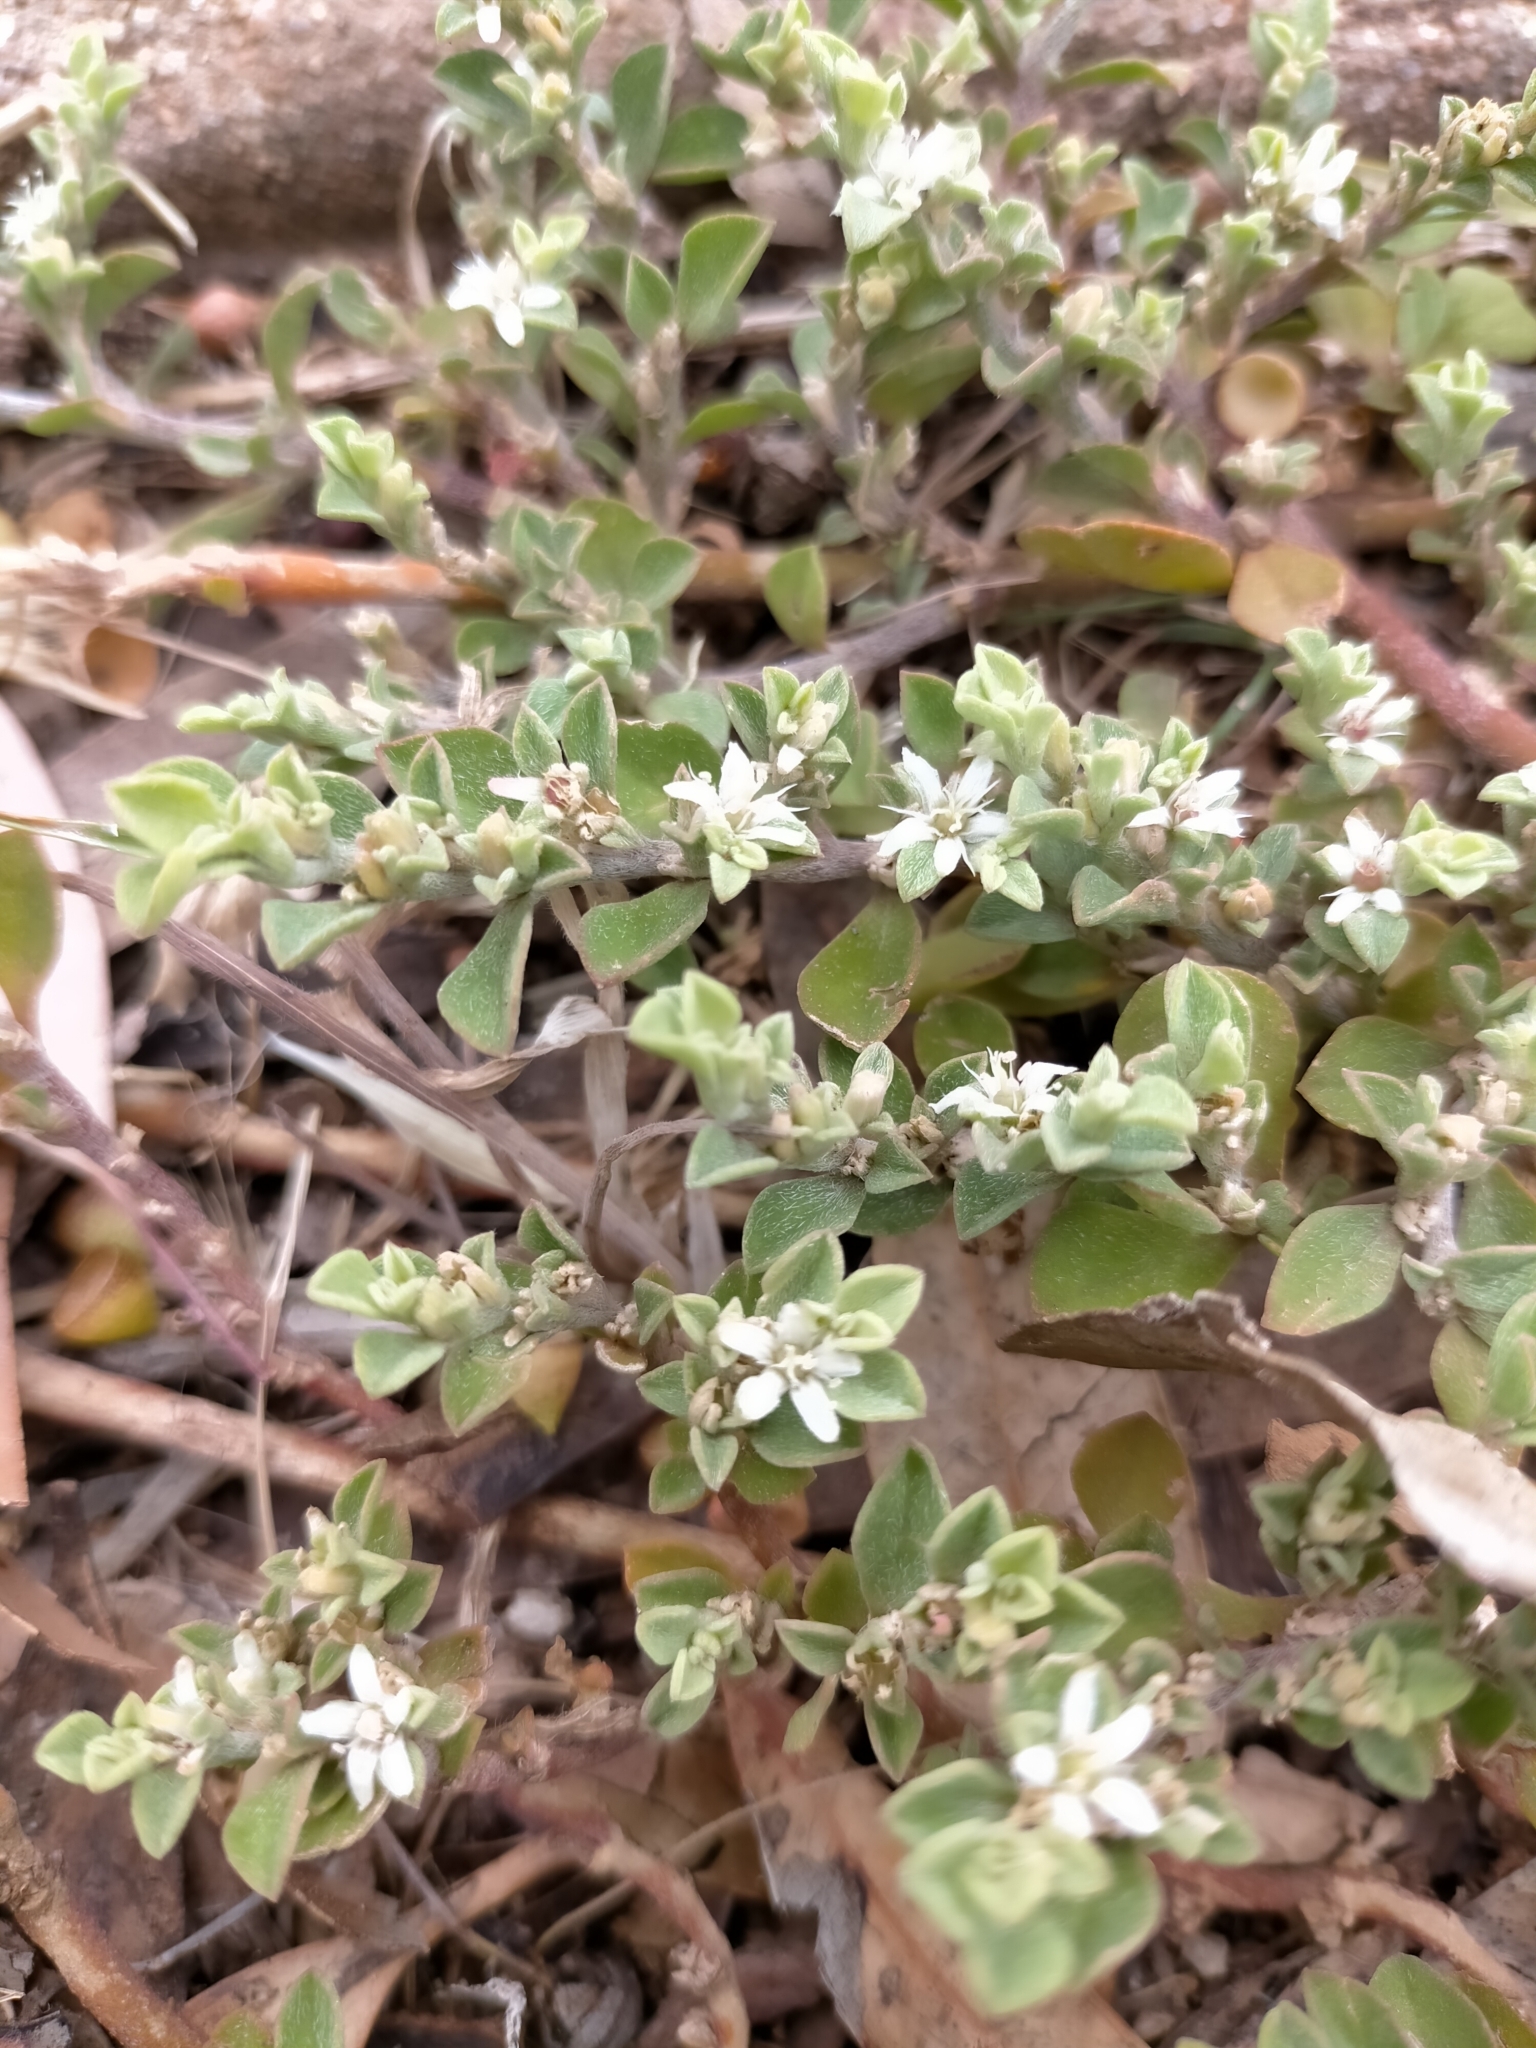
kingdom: Plantae
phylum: Tracheophyta
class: Magnoliopsida
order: Caryophyllales
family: Aizoaceae
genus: Aizoon
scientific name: Aizoon pubescens
